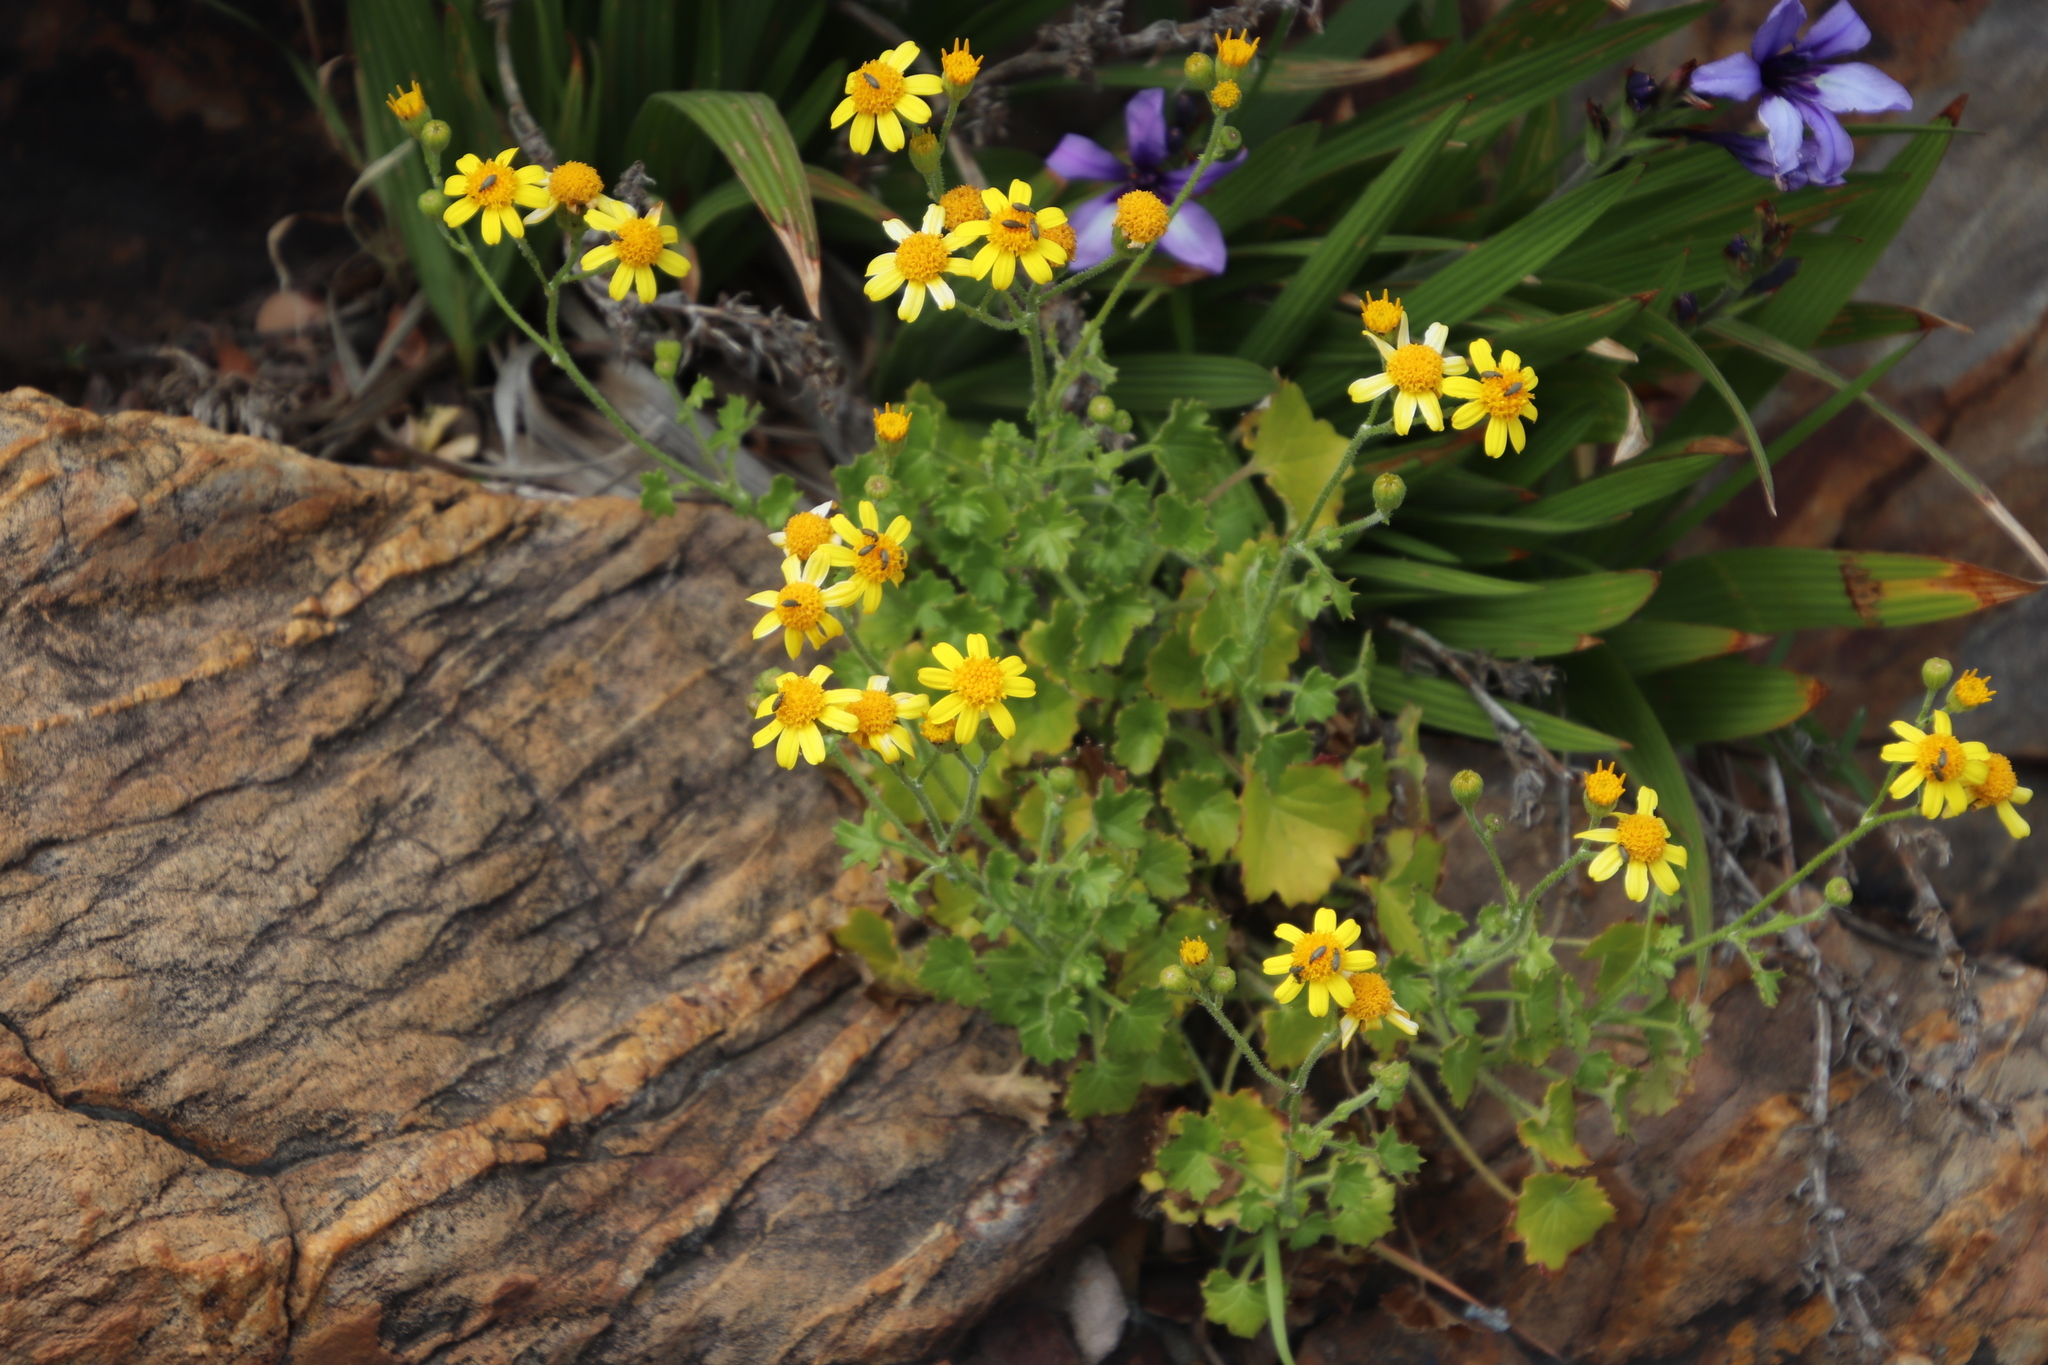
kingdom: Plantae
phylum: Tracheophyta
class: Magnoliopsida
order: Asterales
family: Asteraceae
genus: Cineraria
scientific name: Cineraria geifolia
